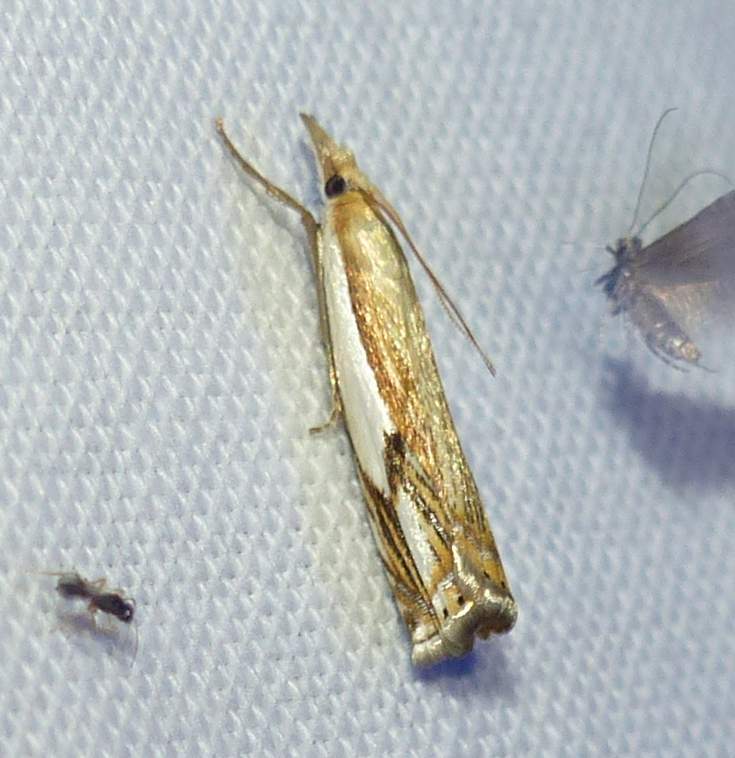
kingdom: Animalia
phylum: Arthropoda
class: Insecta
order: Lepidoptera
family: Crambidae
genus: Crambus
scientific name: Crambus agitatellus
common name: Double-banded grass-veneer
